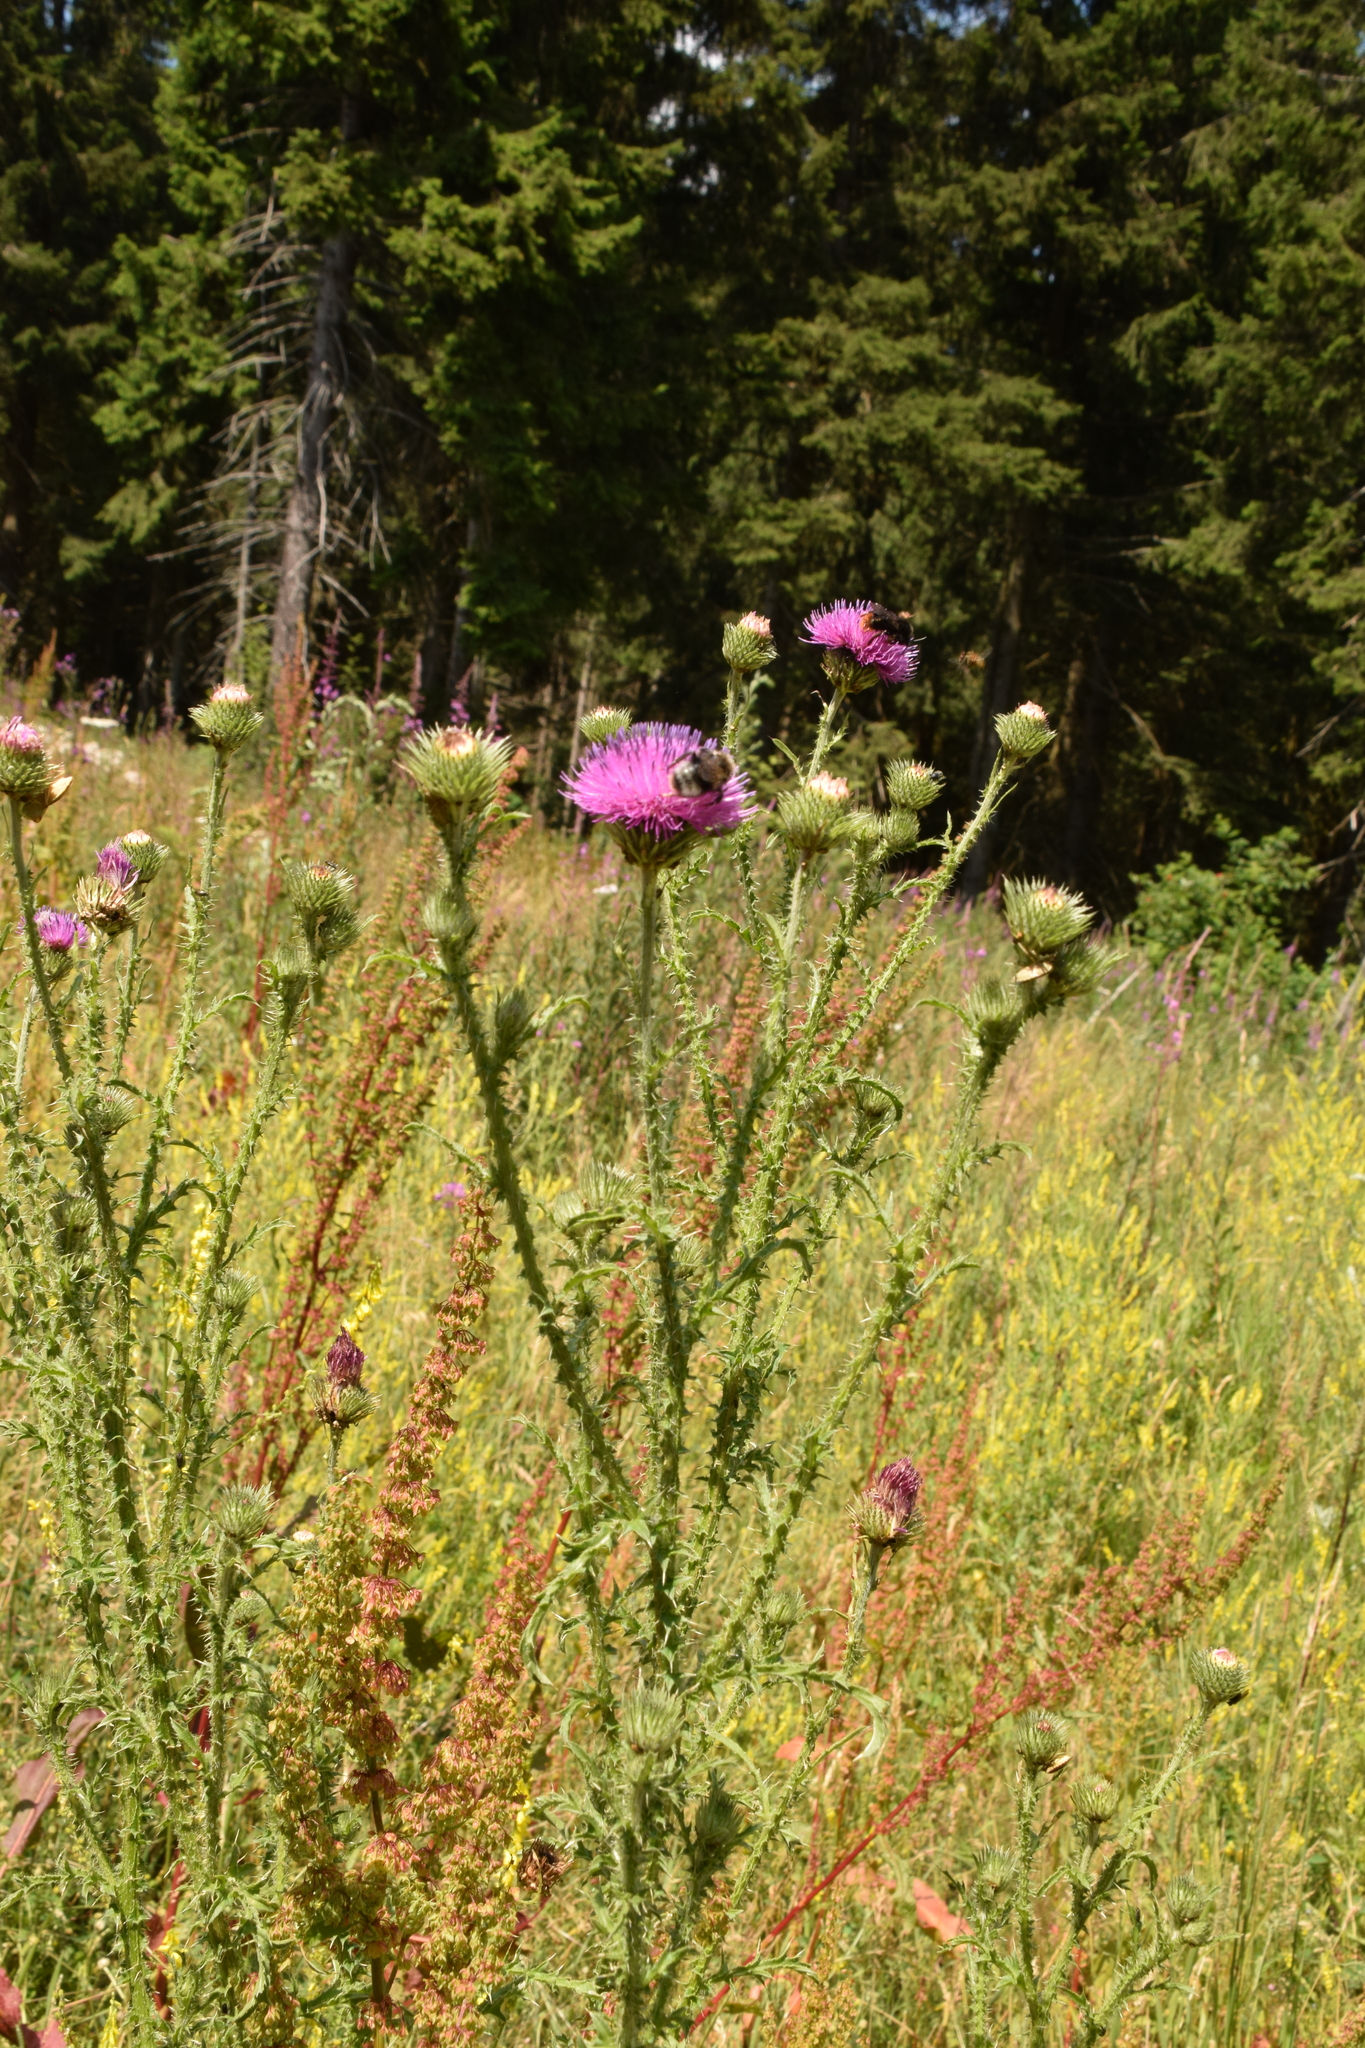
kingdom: Plantae
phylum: Tracheophyta
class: Magnoliopsida
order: Asterales
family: Asteraceae
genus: Carduus
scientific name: Carduus acanthoides
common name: Plumeless thistle
